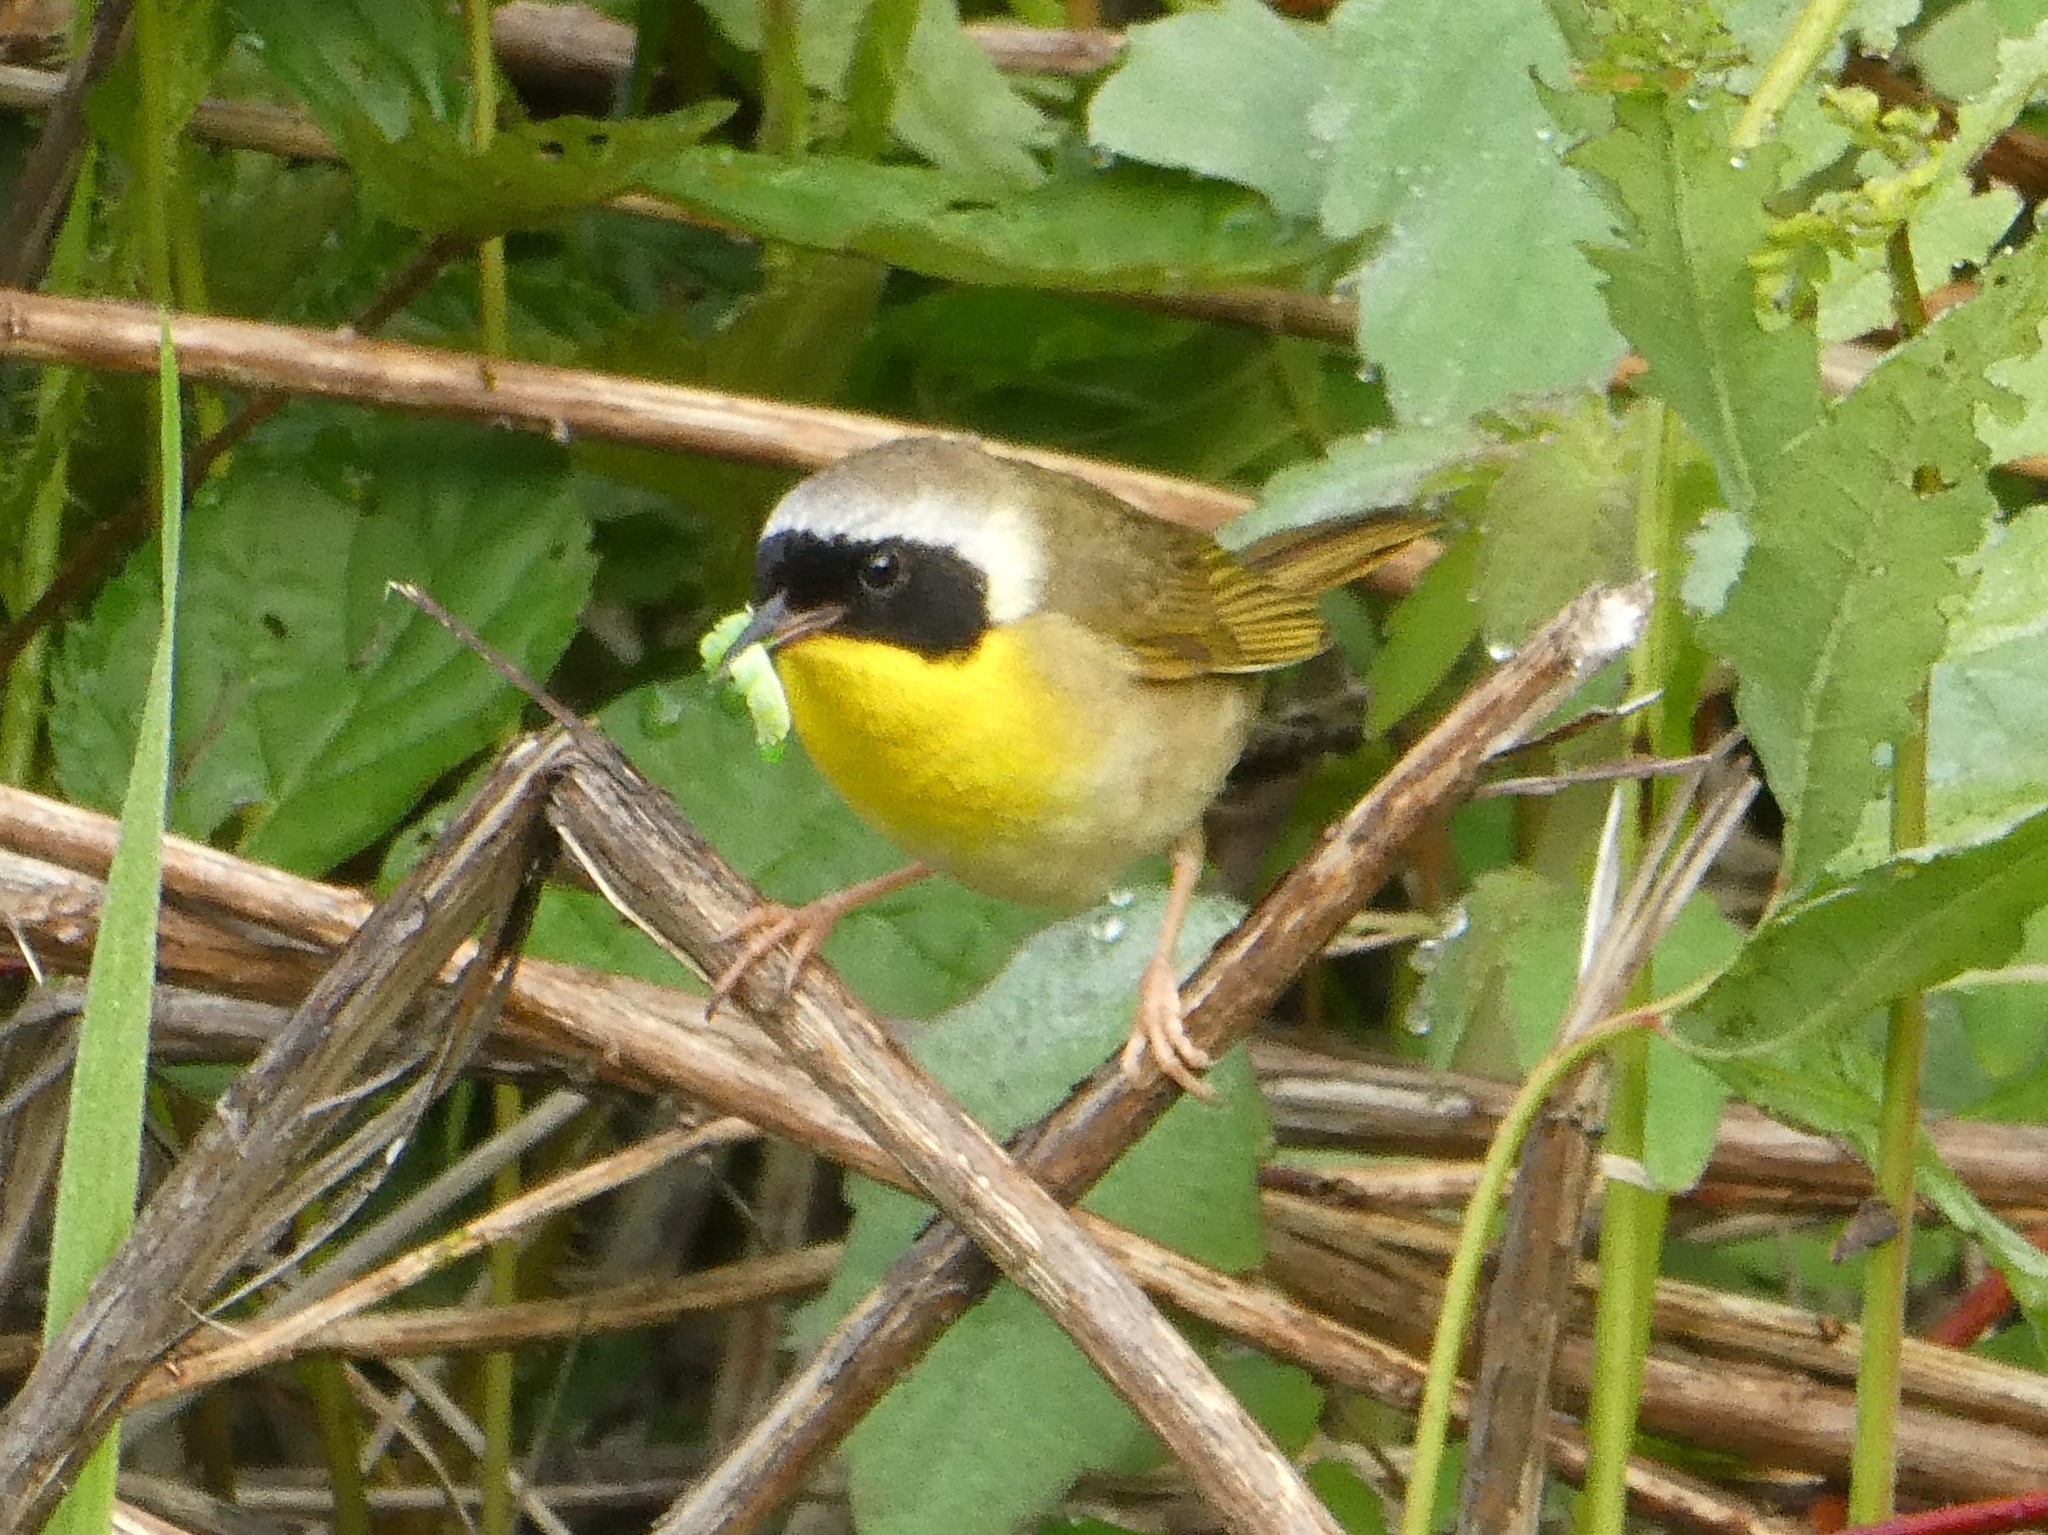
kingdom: Animalia
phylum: Chordata
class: Aves
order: Passeriformes
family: Parulidae
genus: Geothlypis
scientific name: Geothlypis trichas
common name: Common yellowthroat
